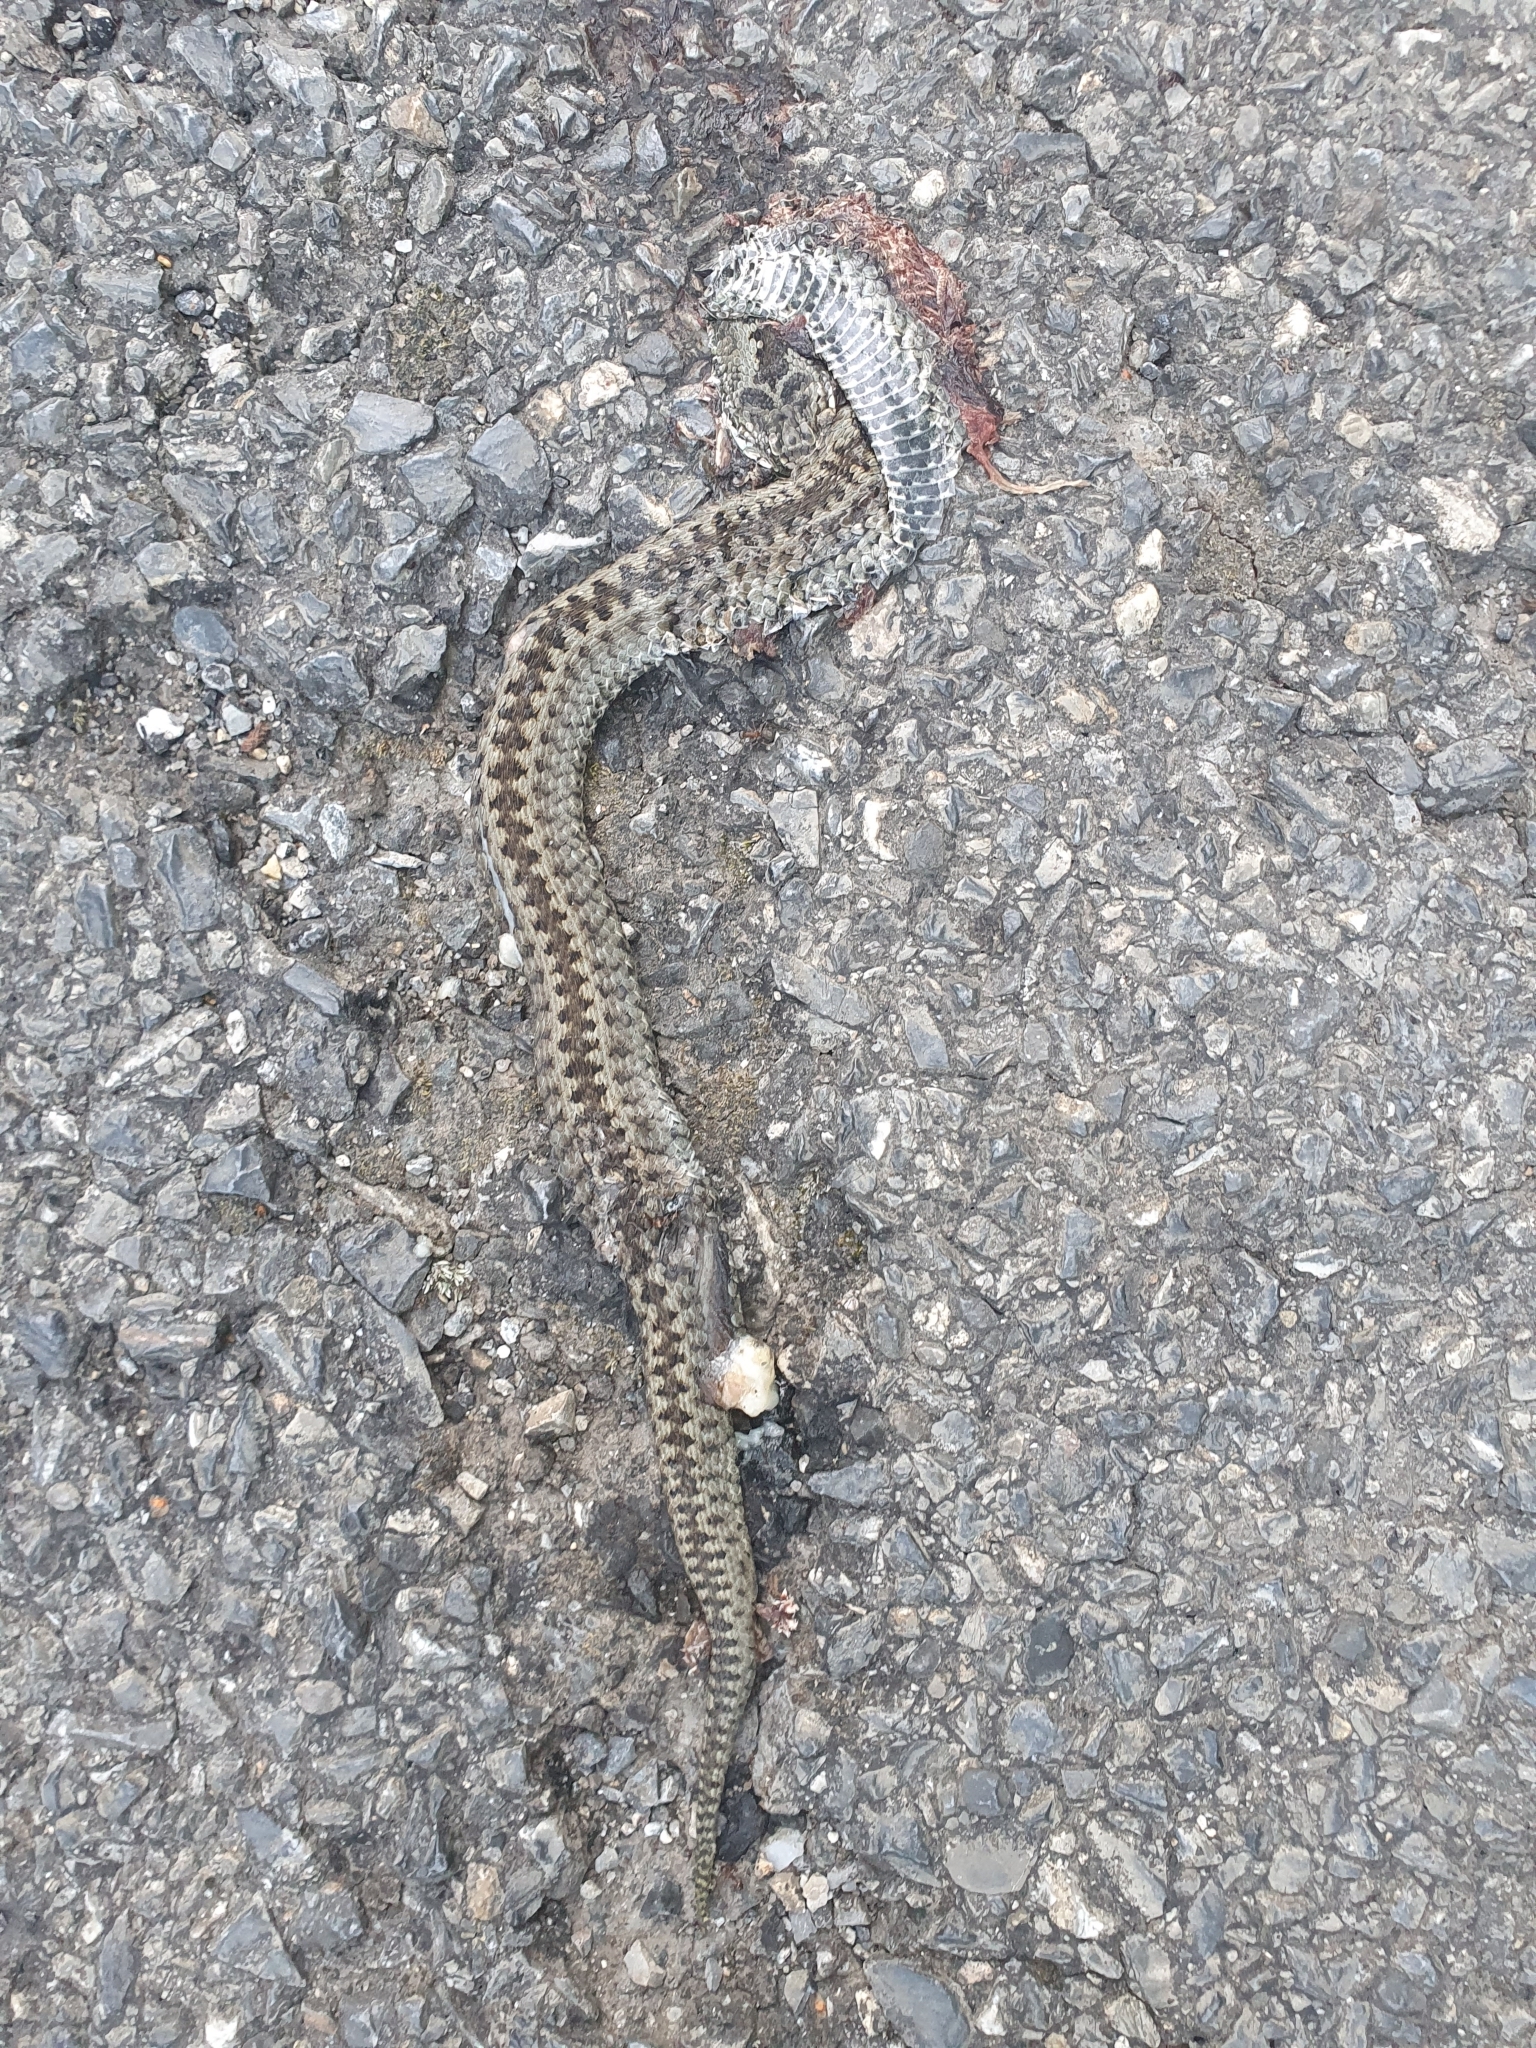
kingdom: Animalia
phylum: Chordata
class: Squamata
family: Viperidae
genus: Vipera
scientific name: Vipera seoanei
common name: Portugese viper
